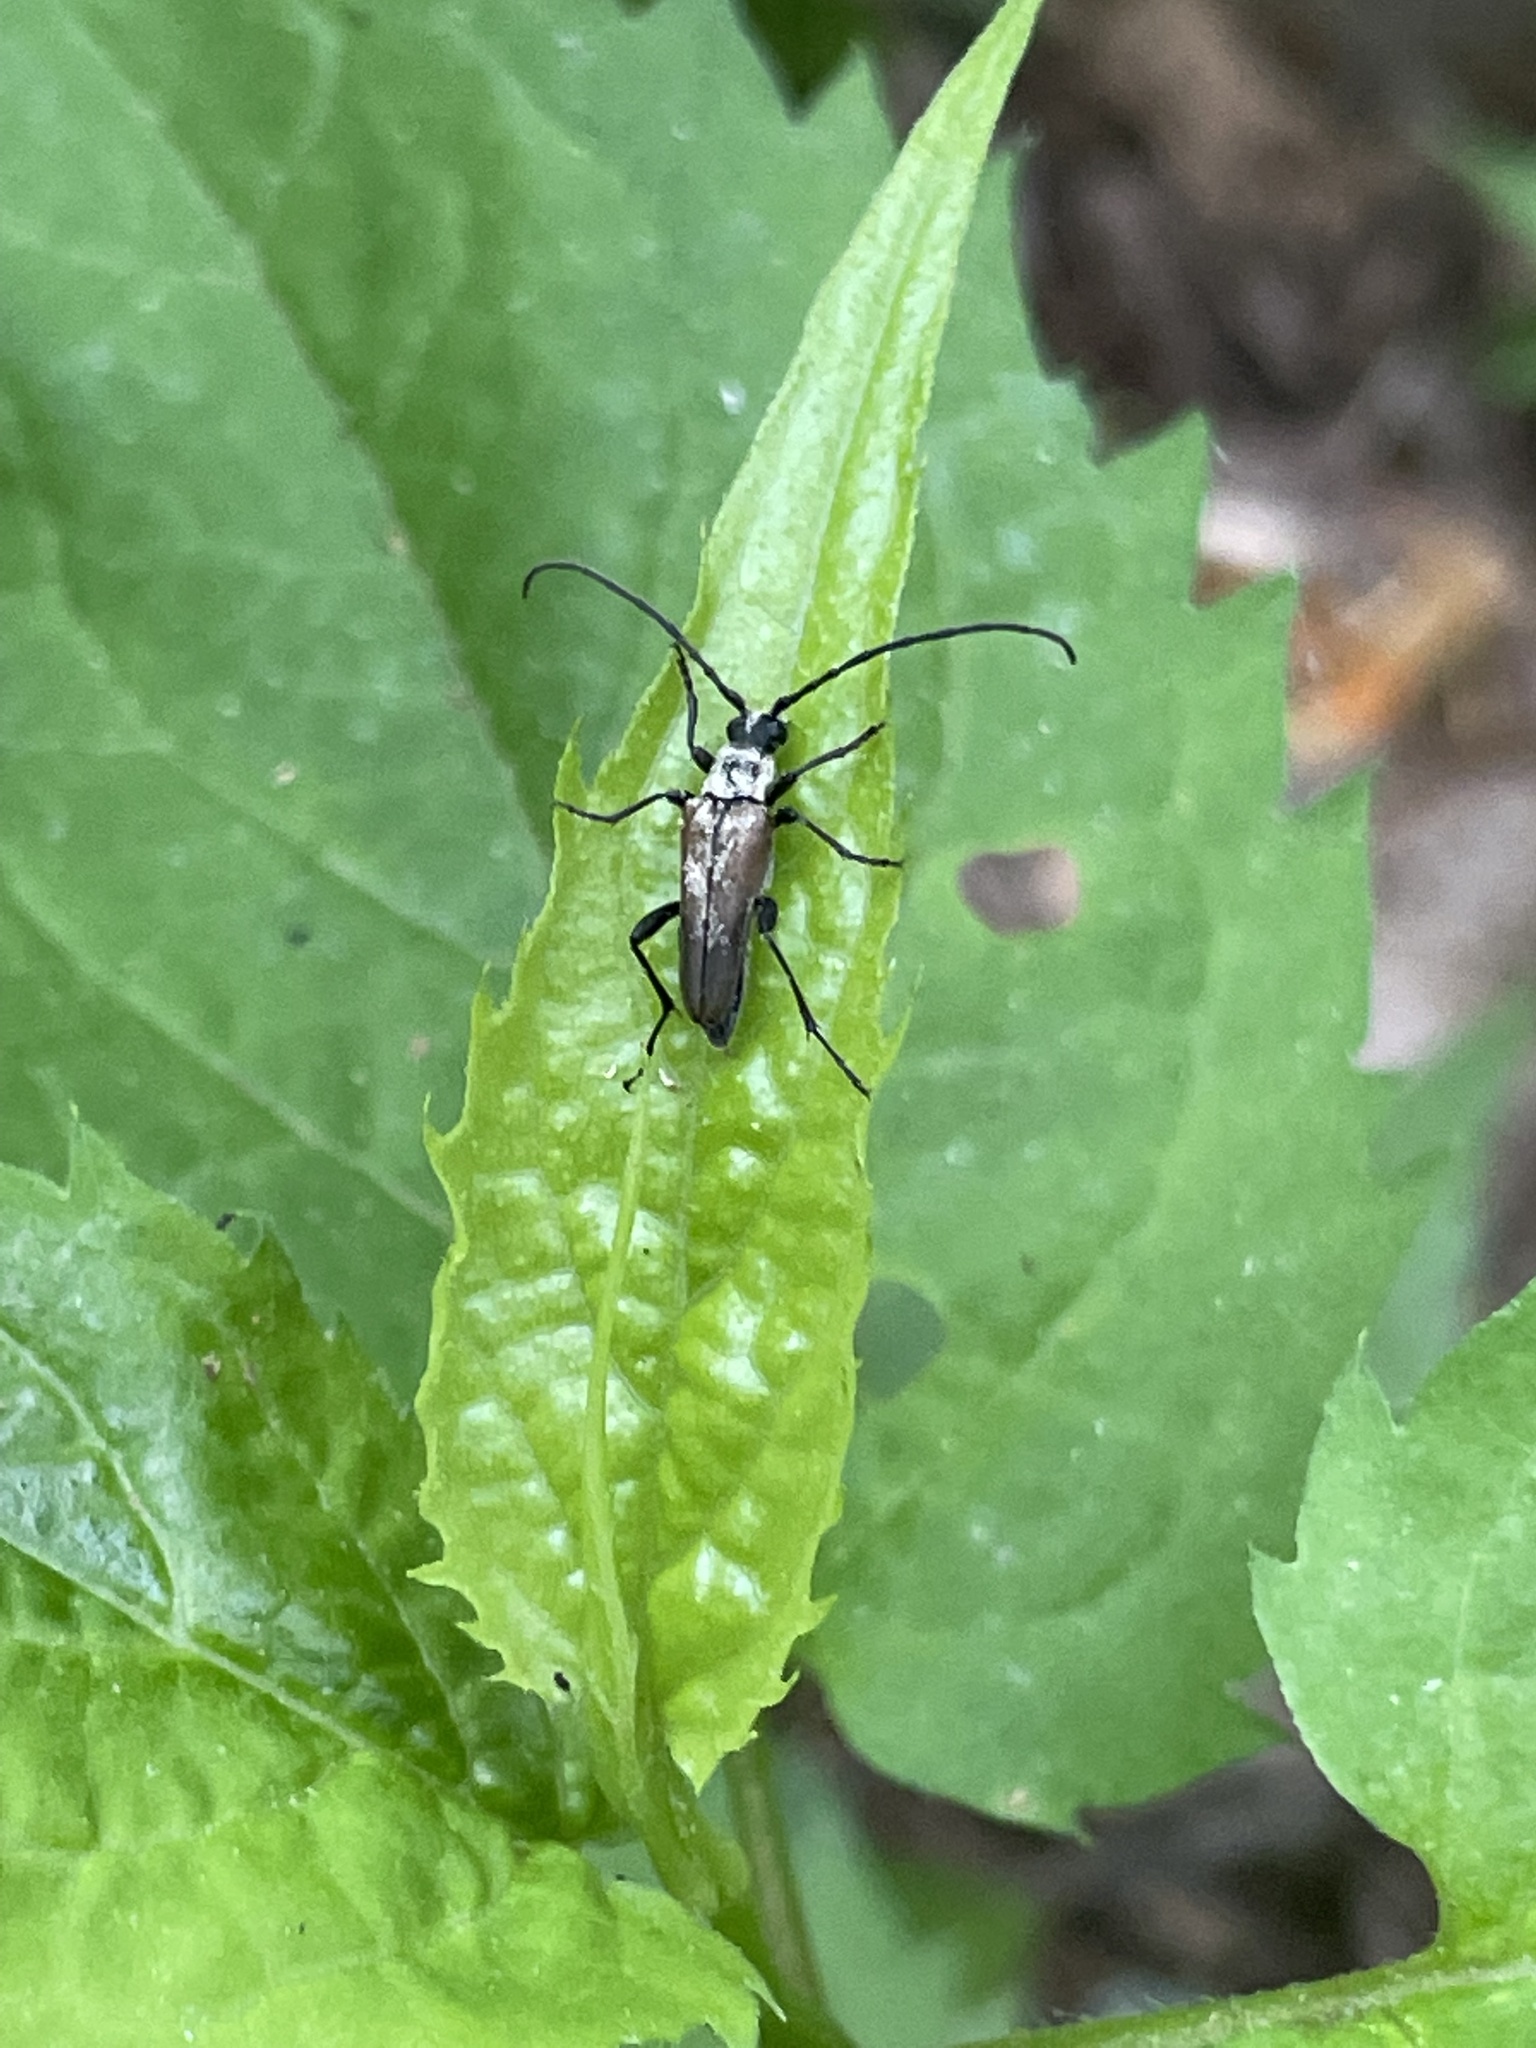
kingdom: Animalia
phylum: Arthropoda
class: Insecta
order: Coleoptera
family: Cerambycidae
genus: Trachysida
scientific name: Trachysida mutabilis
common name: Changeable flower longhorn
